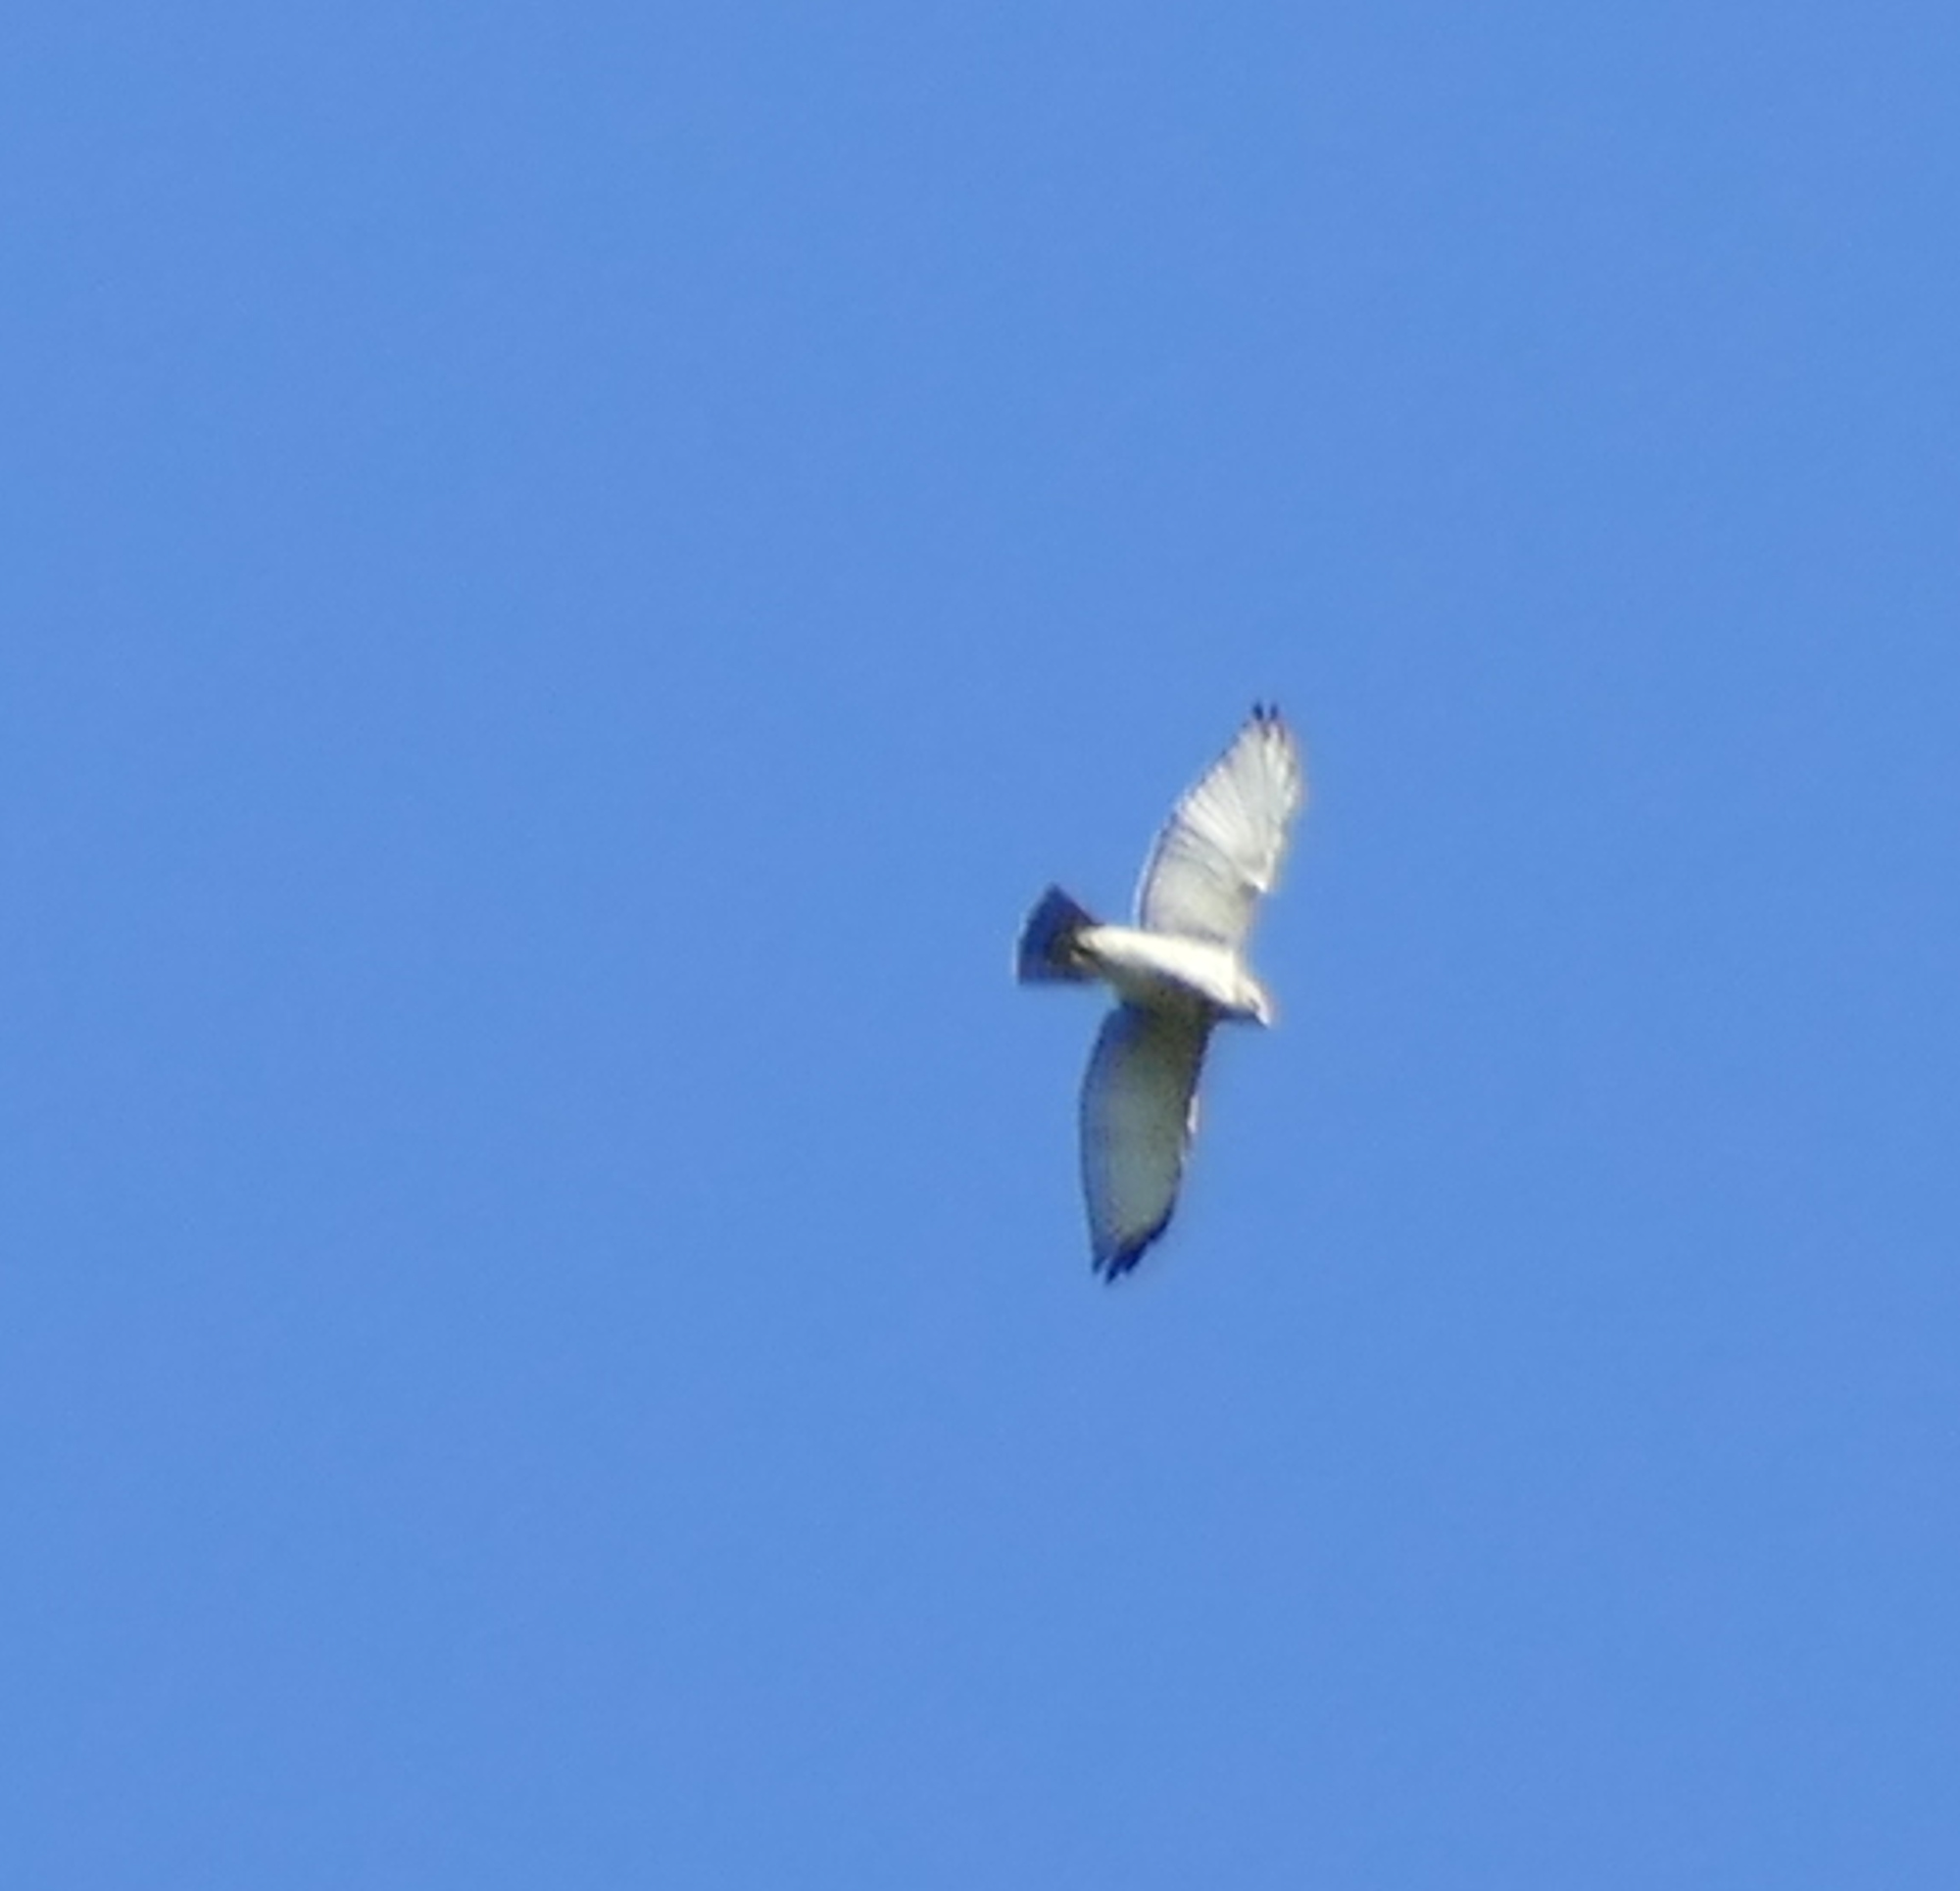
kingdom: Animalia
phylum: Chordata
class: Aves
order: Accipitriformes
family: Accipitridae
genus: Buteo
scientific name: Buteo platypterus
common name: Broad-winged hawk
